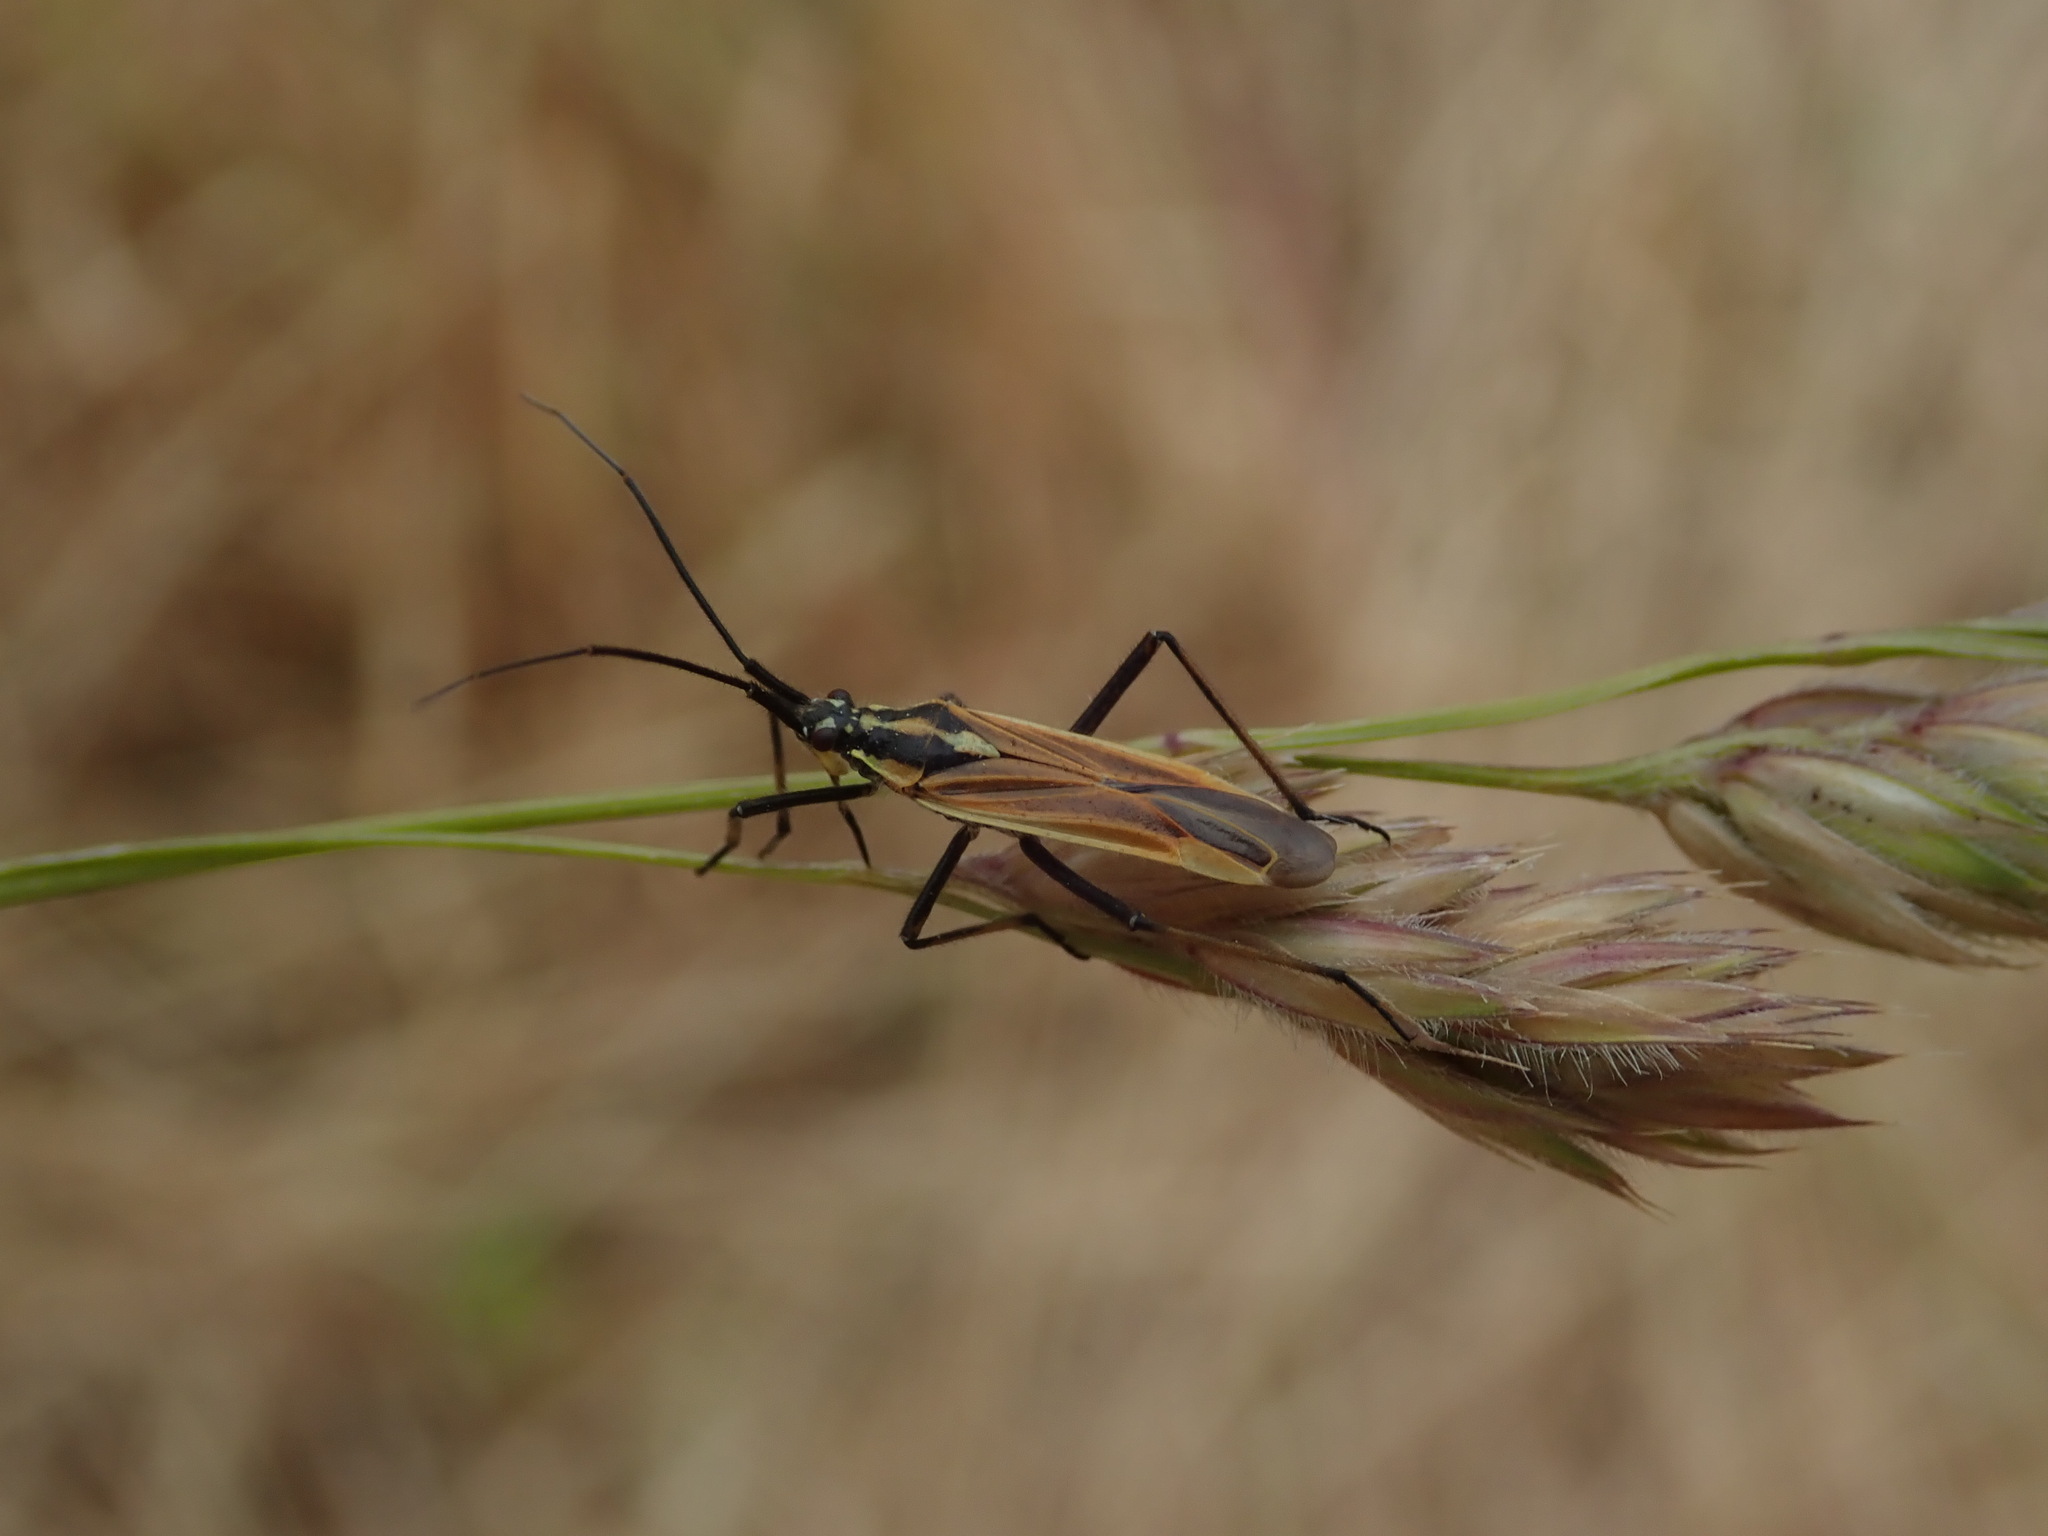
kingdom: Animalia
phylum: Arthropoda
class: Insecta
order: Hemiptera
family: Miridae
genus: Leptopterna
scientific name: Leptopterna dolabrata
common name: Meadow plant bug
